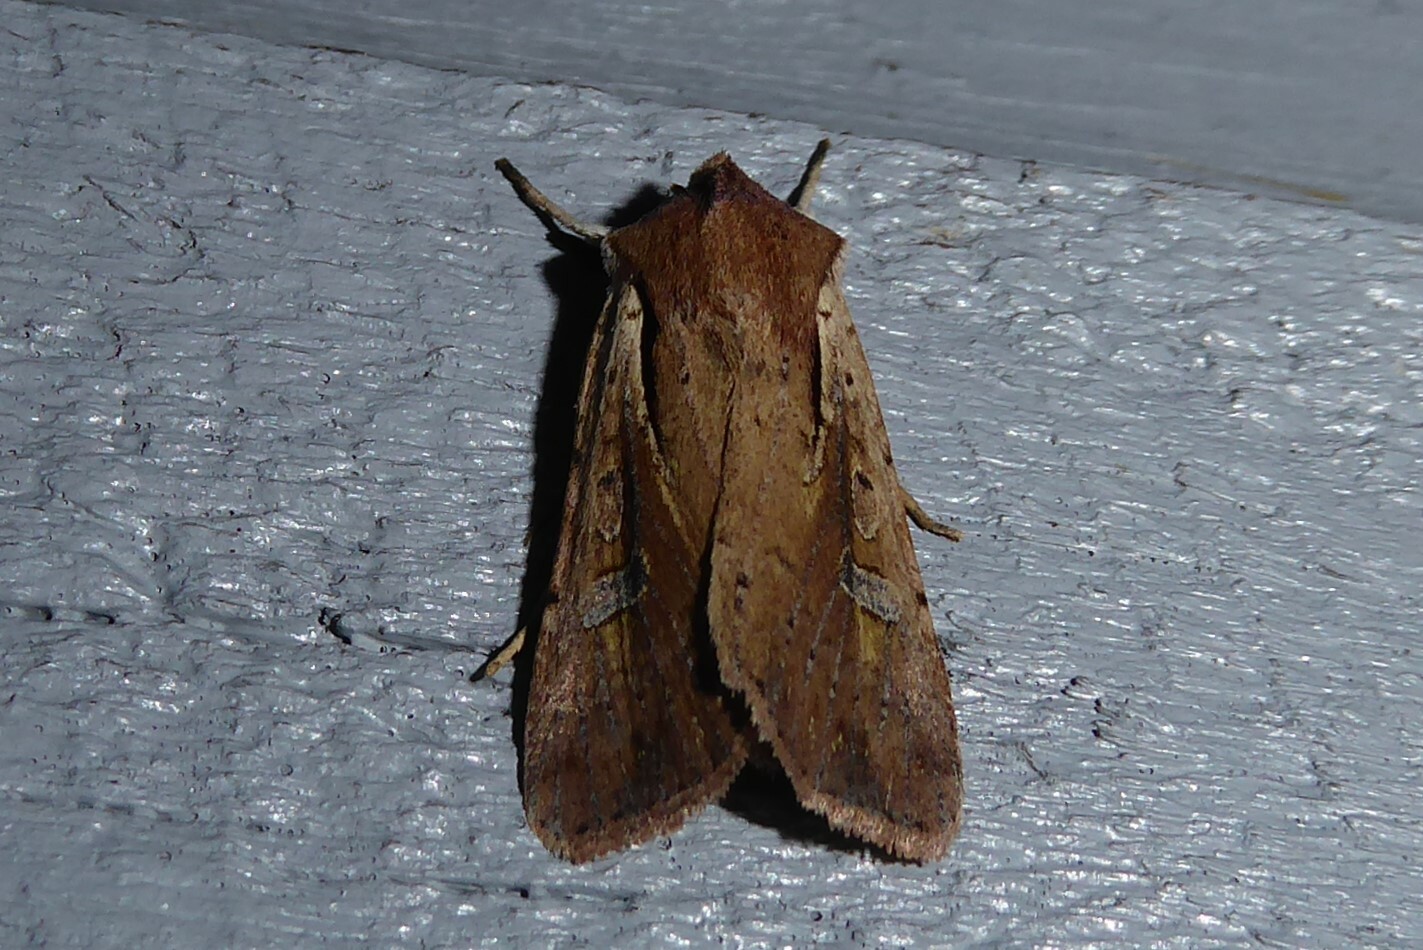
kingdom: Animalia
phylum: Arthropoda
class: Insecta
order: Lepidoptera
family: Noctuidae
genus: Ichneutica
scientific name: Ichneutica atristriga
